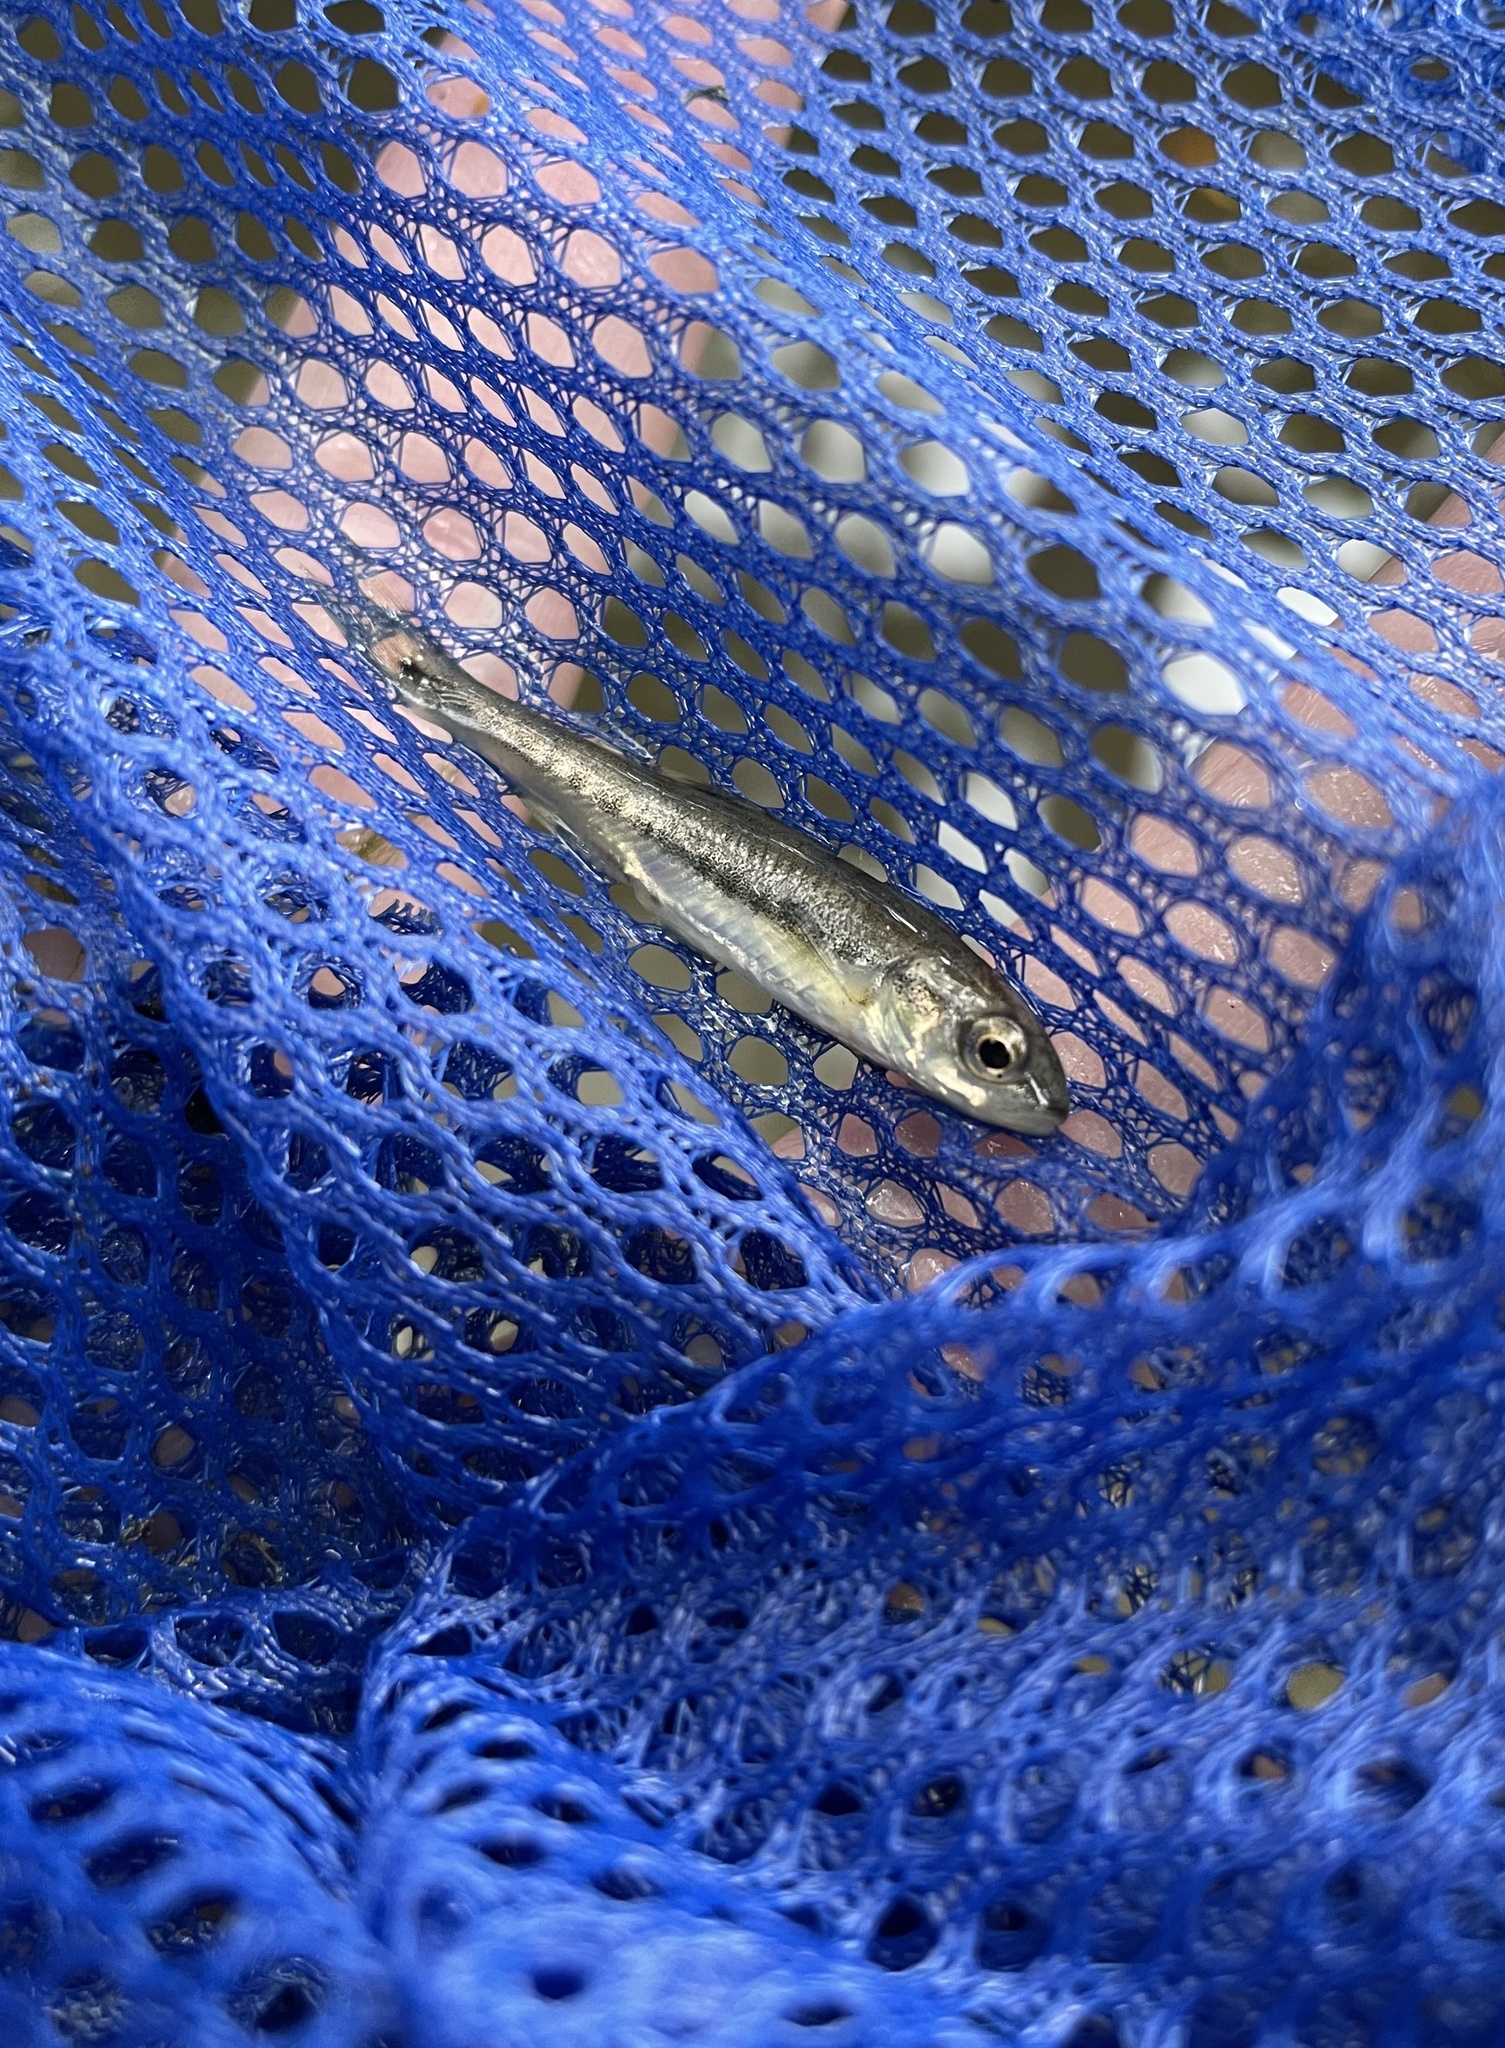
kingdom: Animalia
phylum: Chordata
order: Cypriniformes
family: Cyprinidae
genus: Phoxinus
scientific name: Phoxinus phoxinus
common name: Minnow
